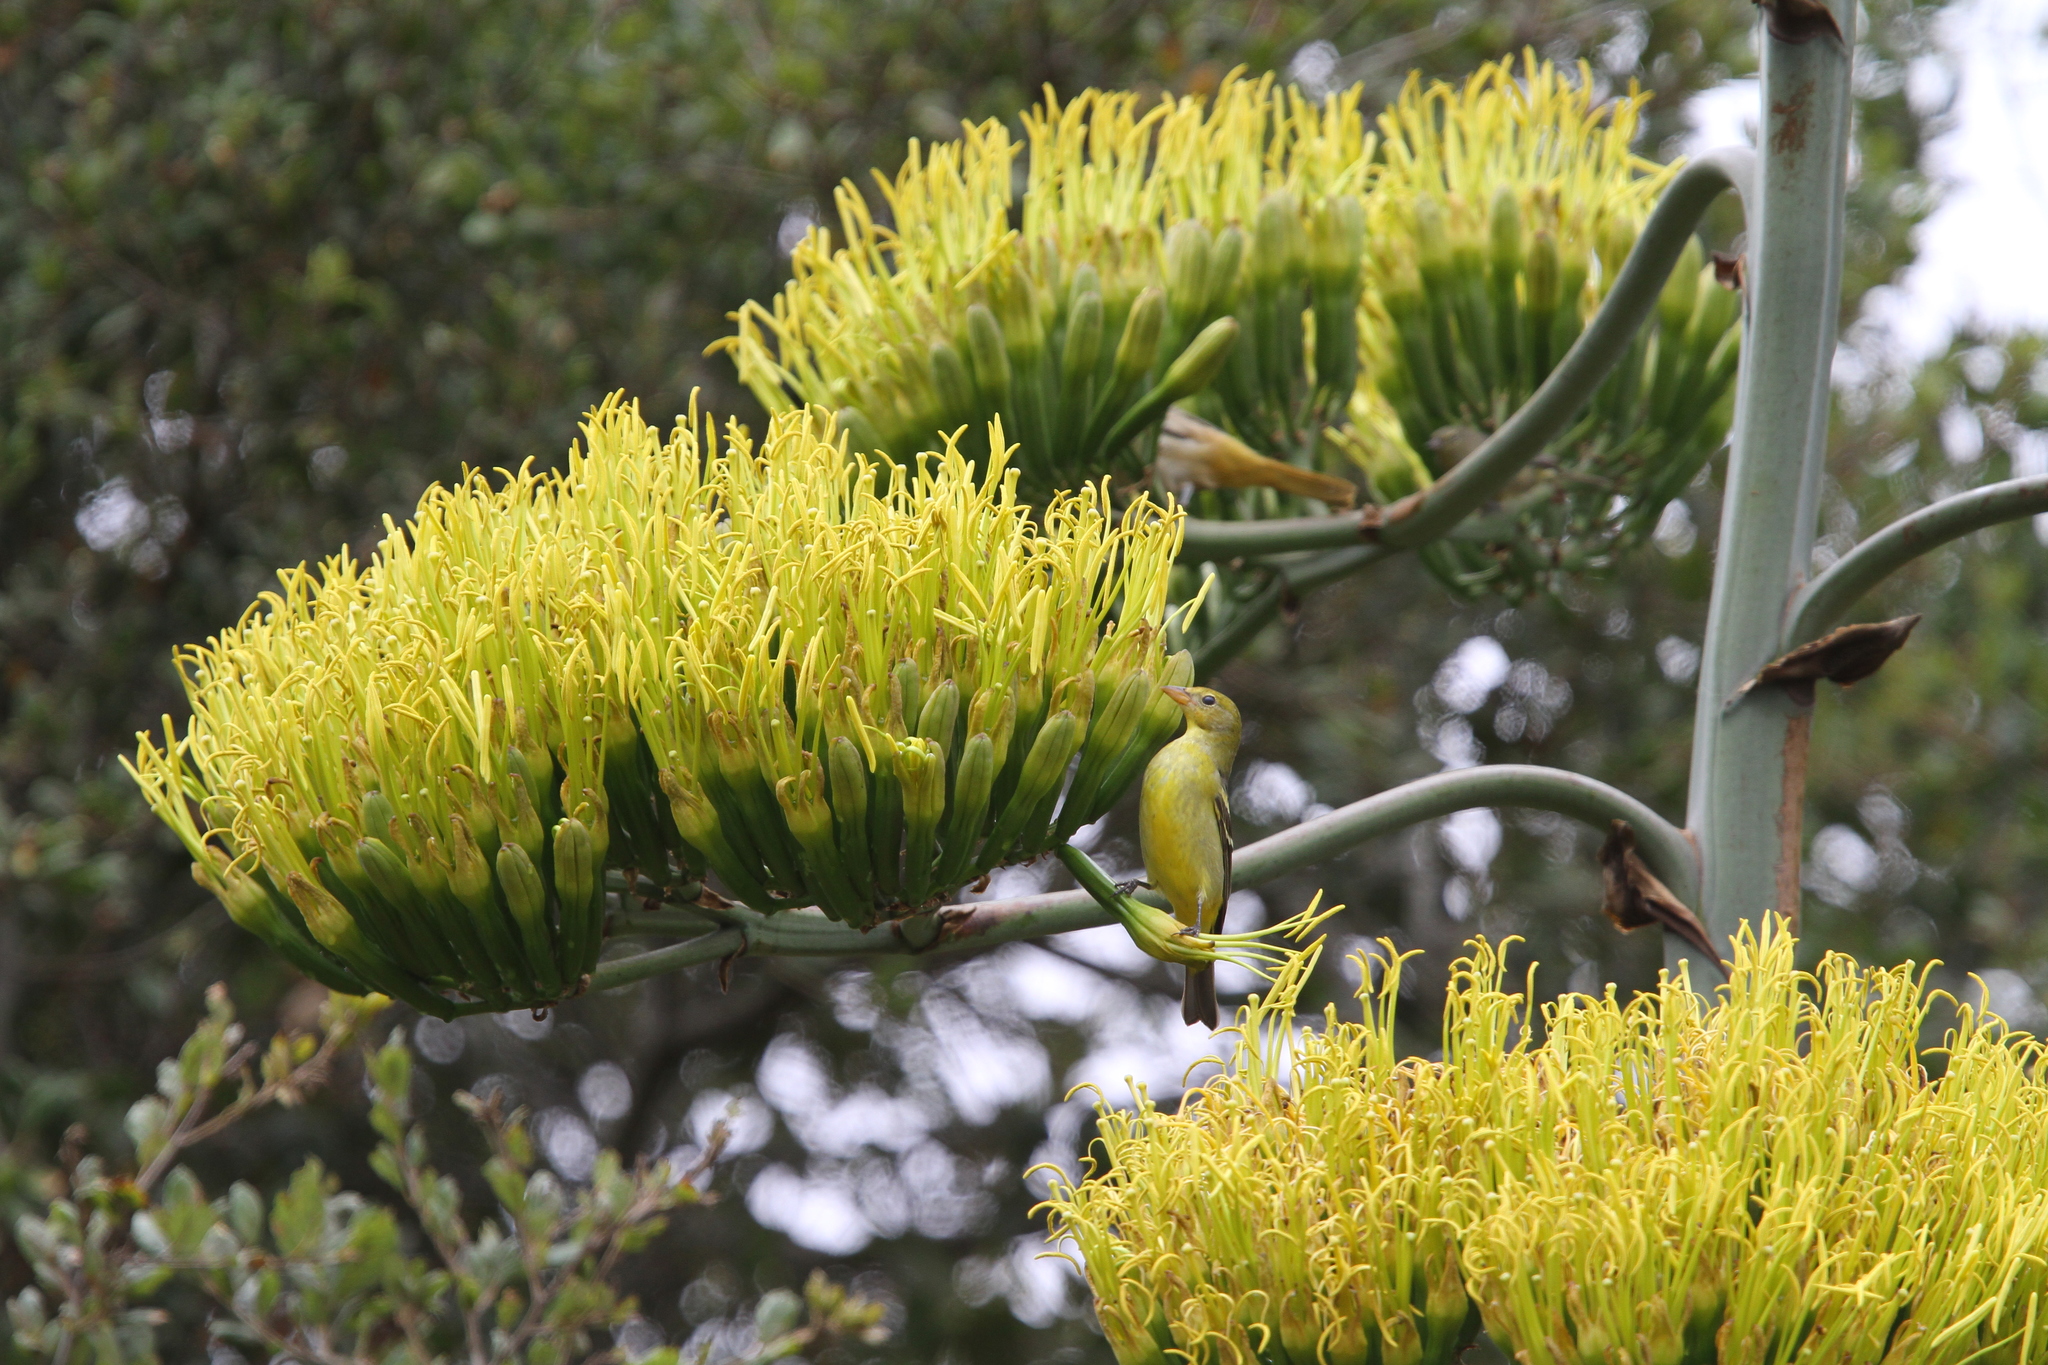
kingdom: Animalia
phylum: Chordata
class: Aves
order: Passeriformes
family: Cardinalidae
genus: Piranga
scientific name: Piranga ludoviciana
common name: Western tanager
